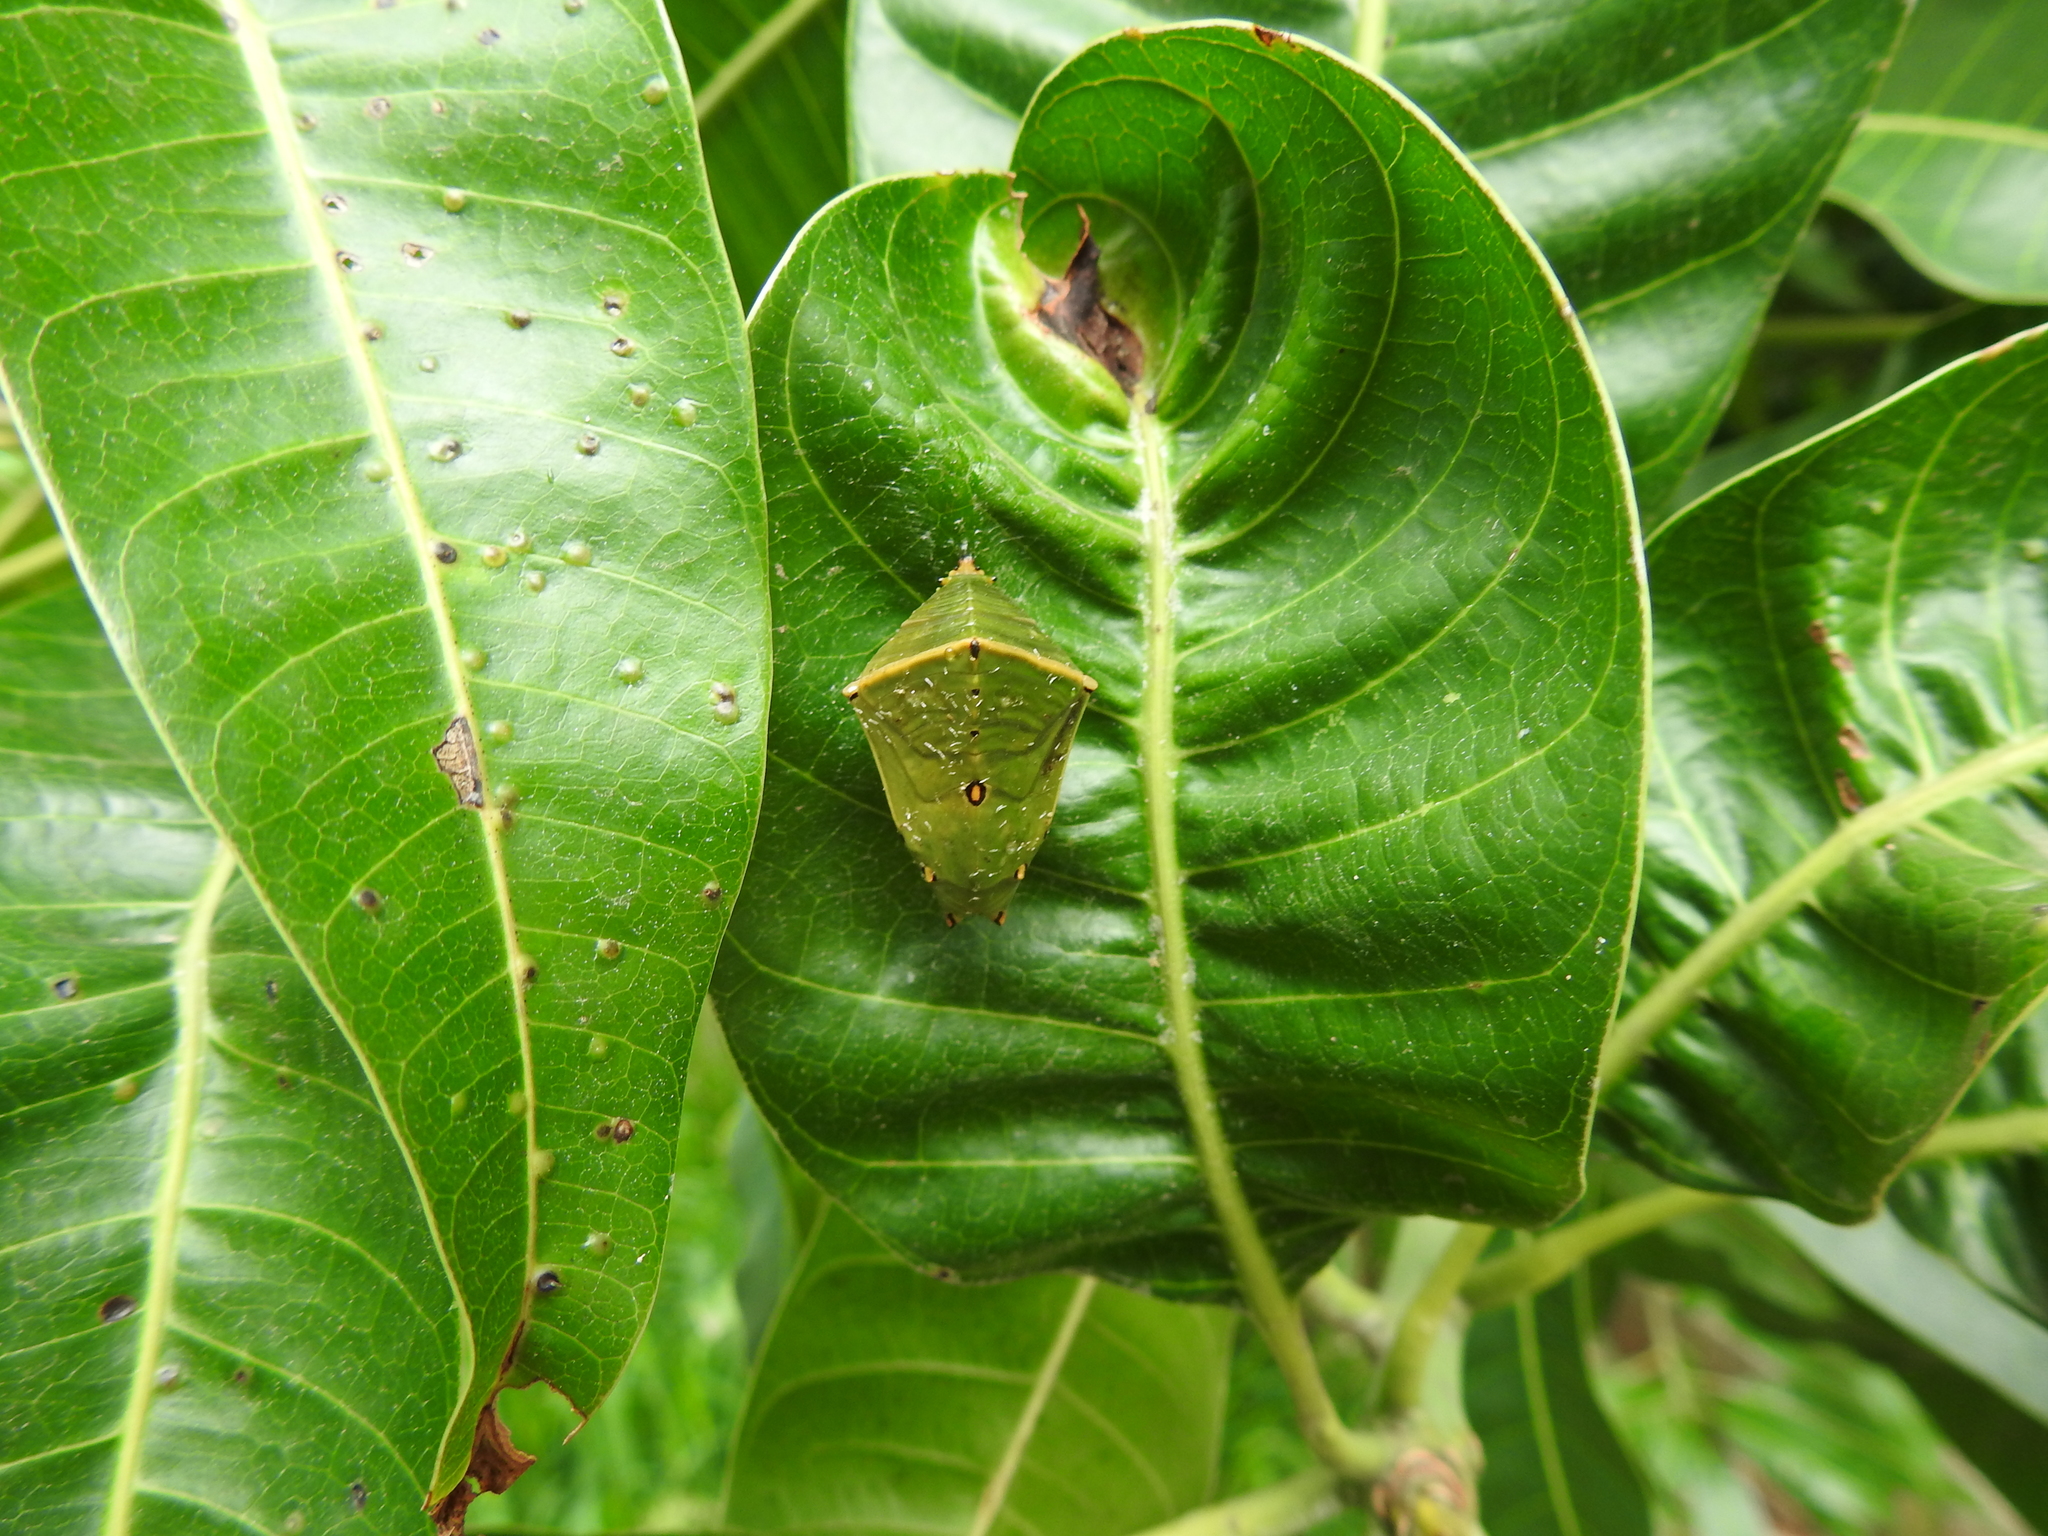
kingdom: Animalia
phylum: Arthropoda
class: Insecta
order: Lepidoptera
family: Nymphalidae
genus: Euthalia
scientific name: Euthalia aconthea
